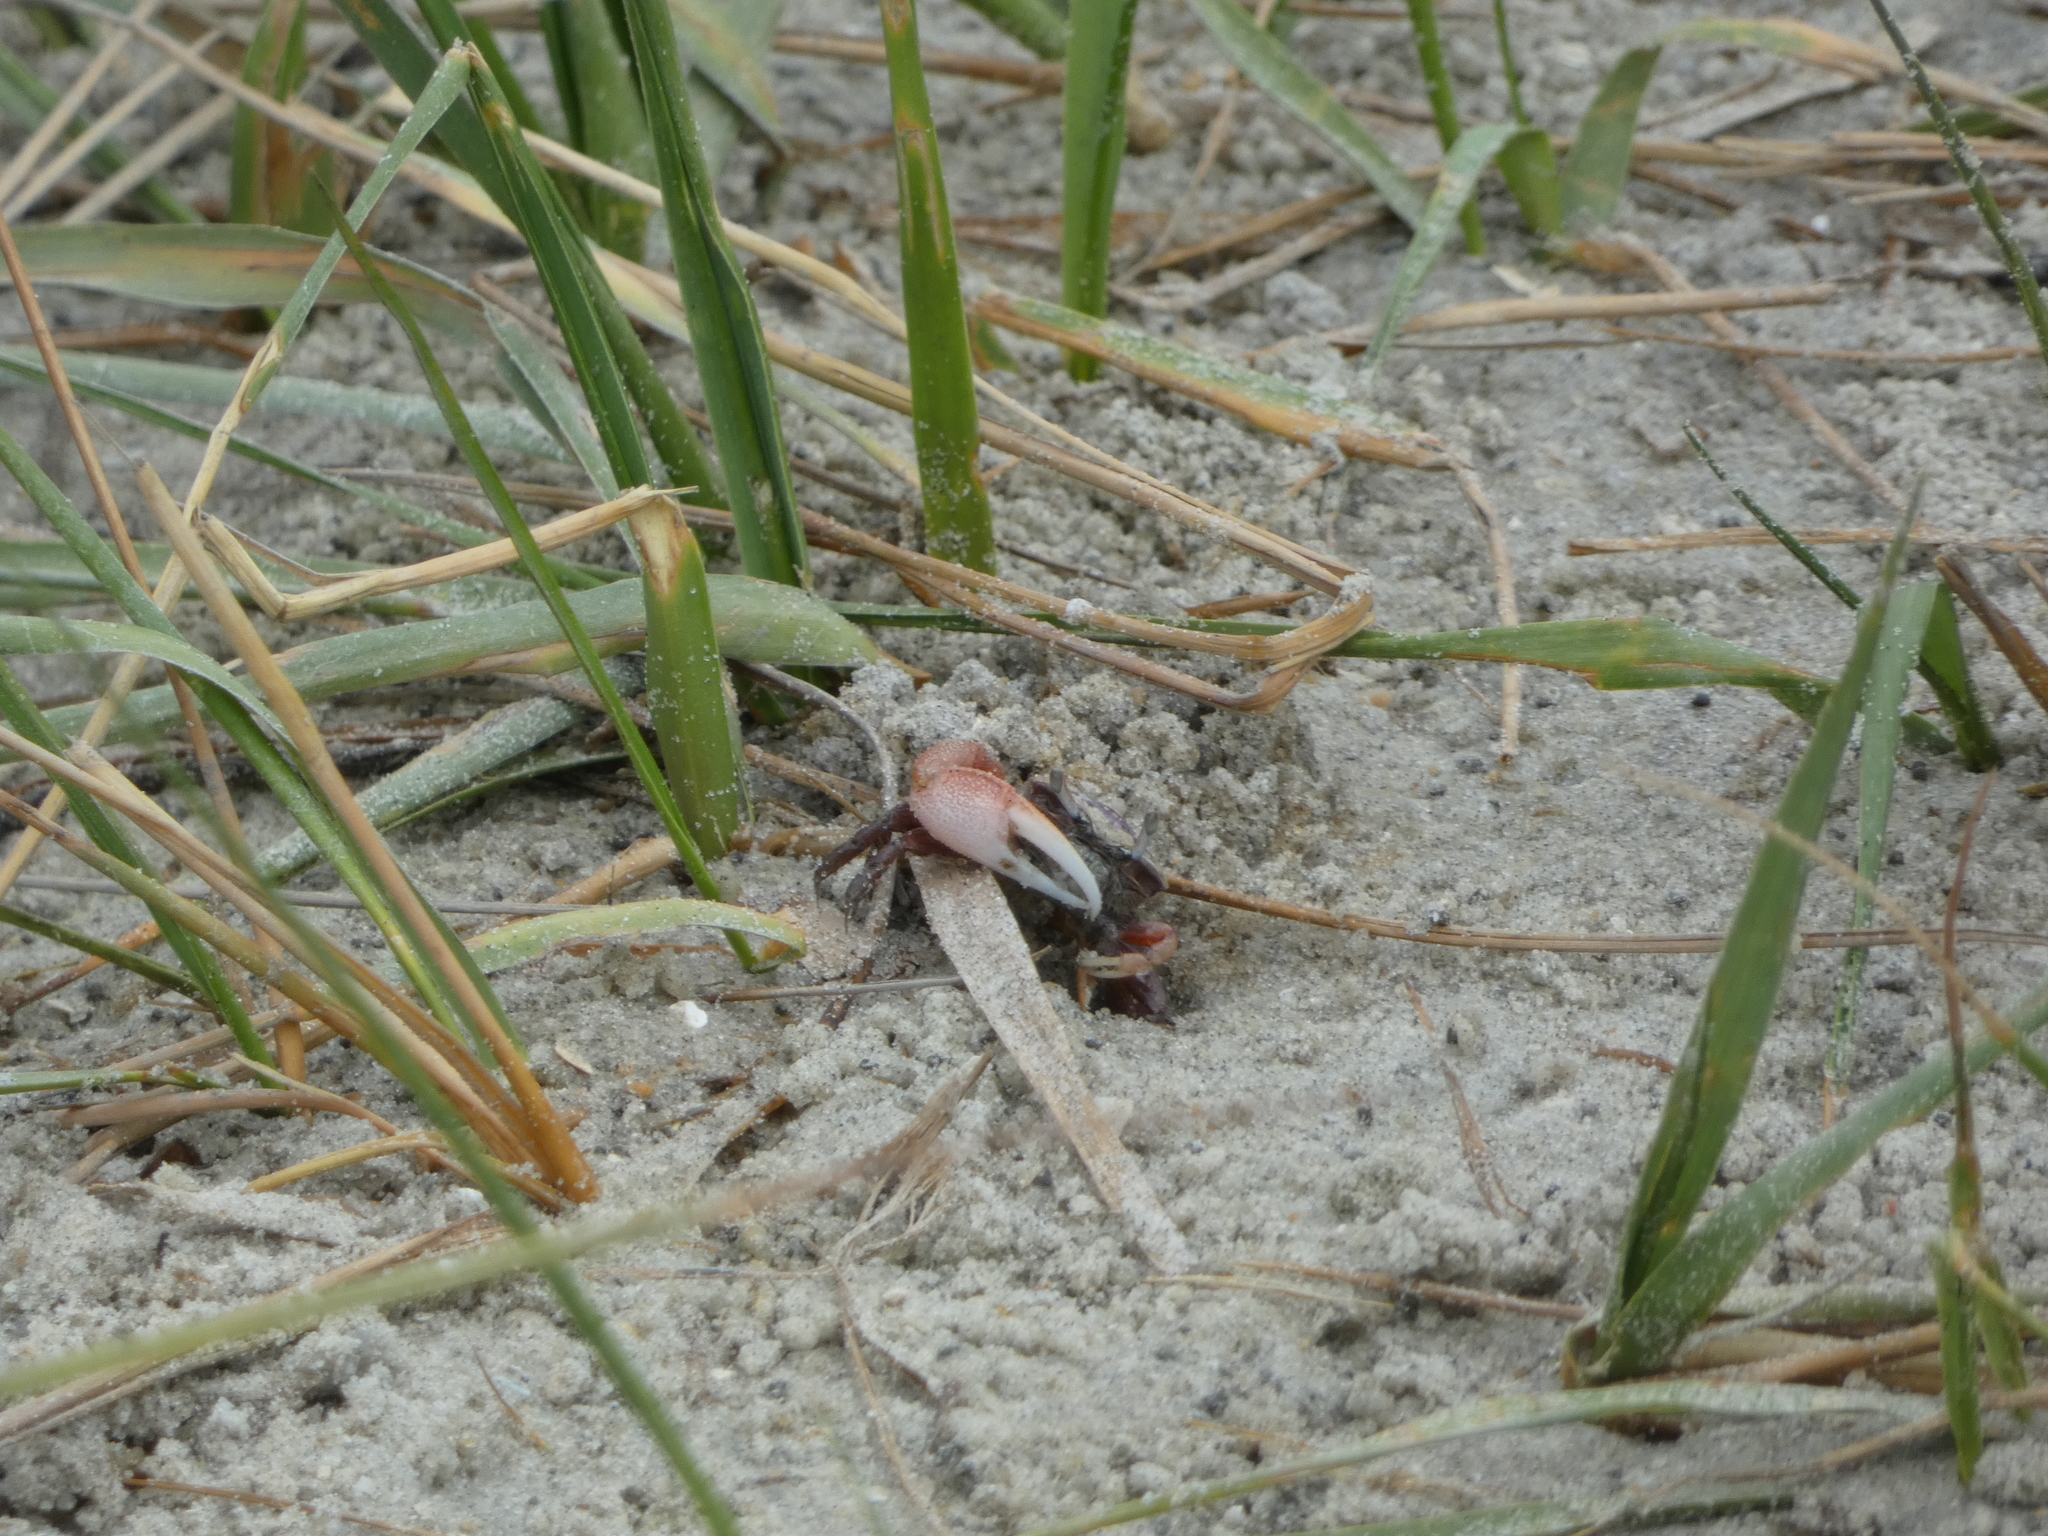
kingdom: Animalia
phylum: Arthropoda
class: Malacostraca
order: Decapoda
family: Ocypodidae
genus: Leptuca
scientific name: Leptuca pugilator
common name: Atlantic sand fiddler crab
